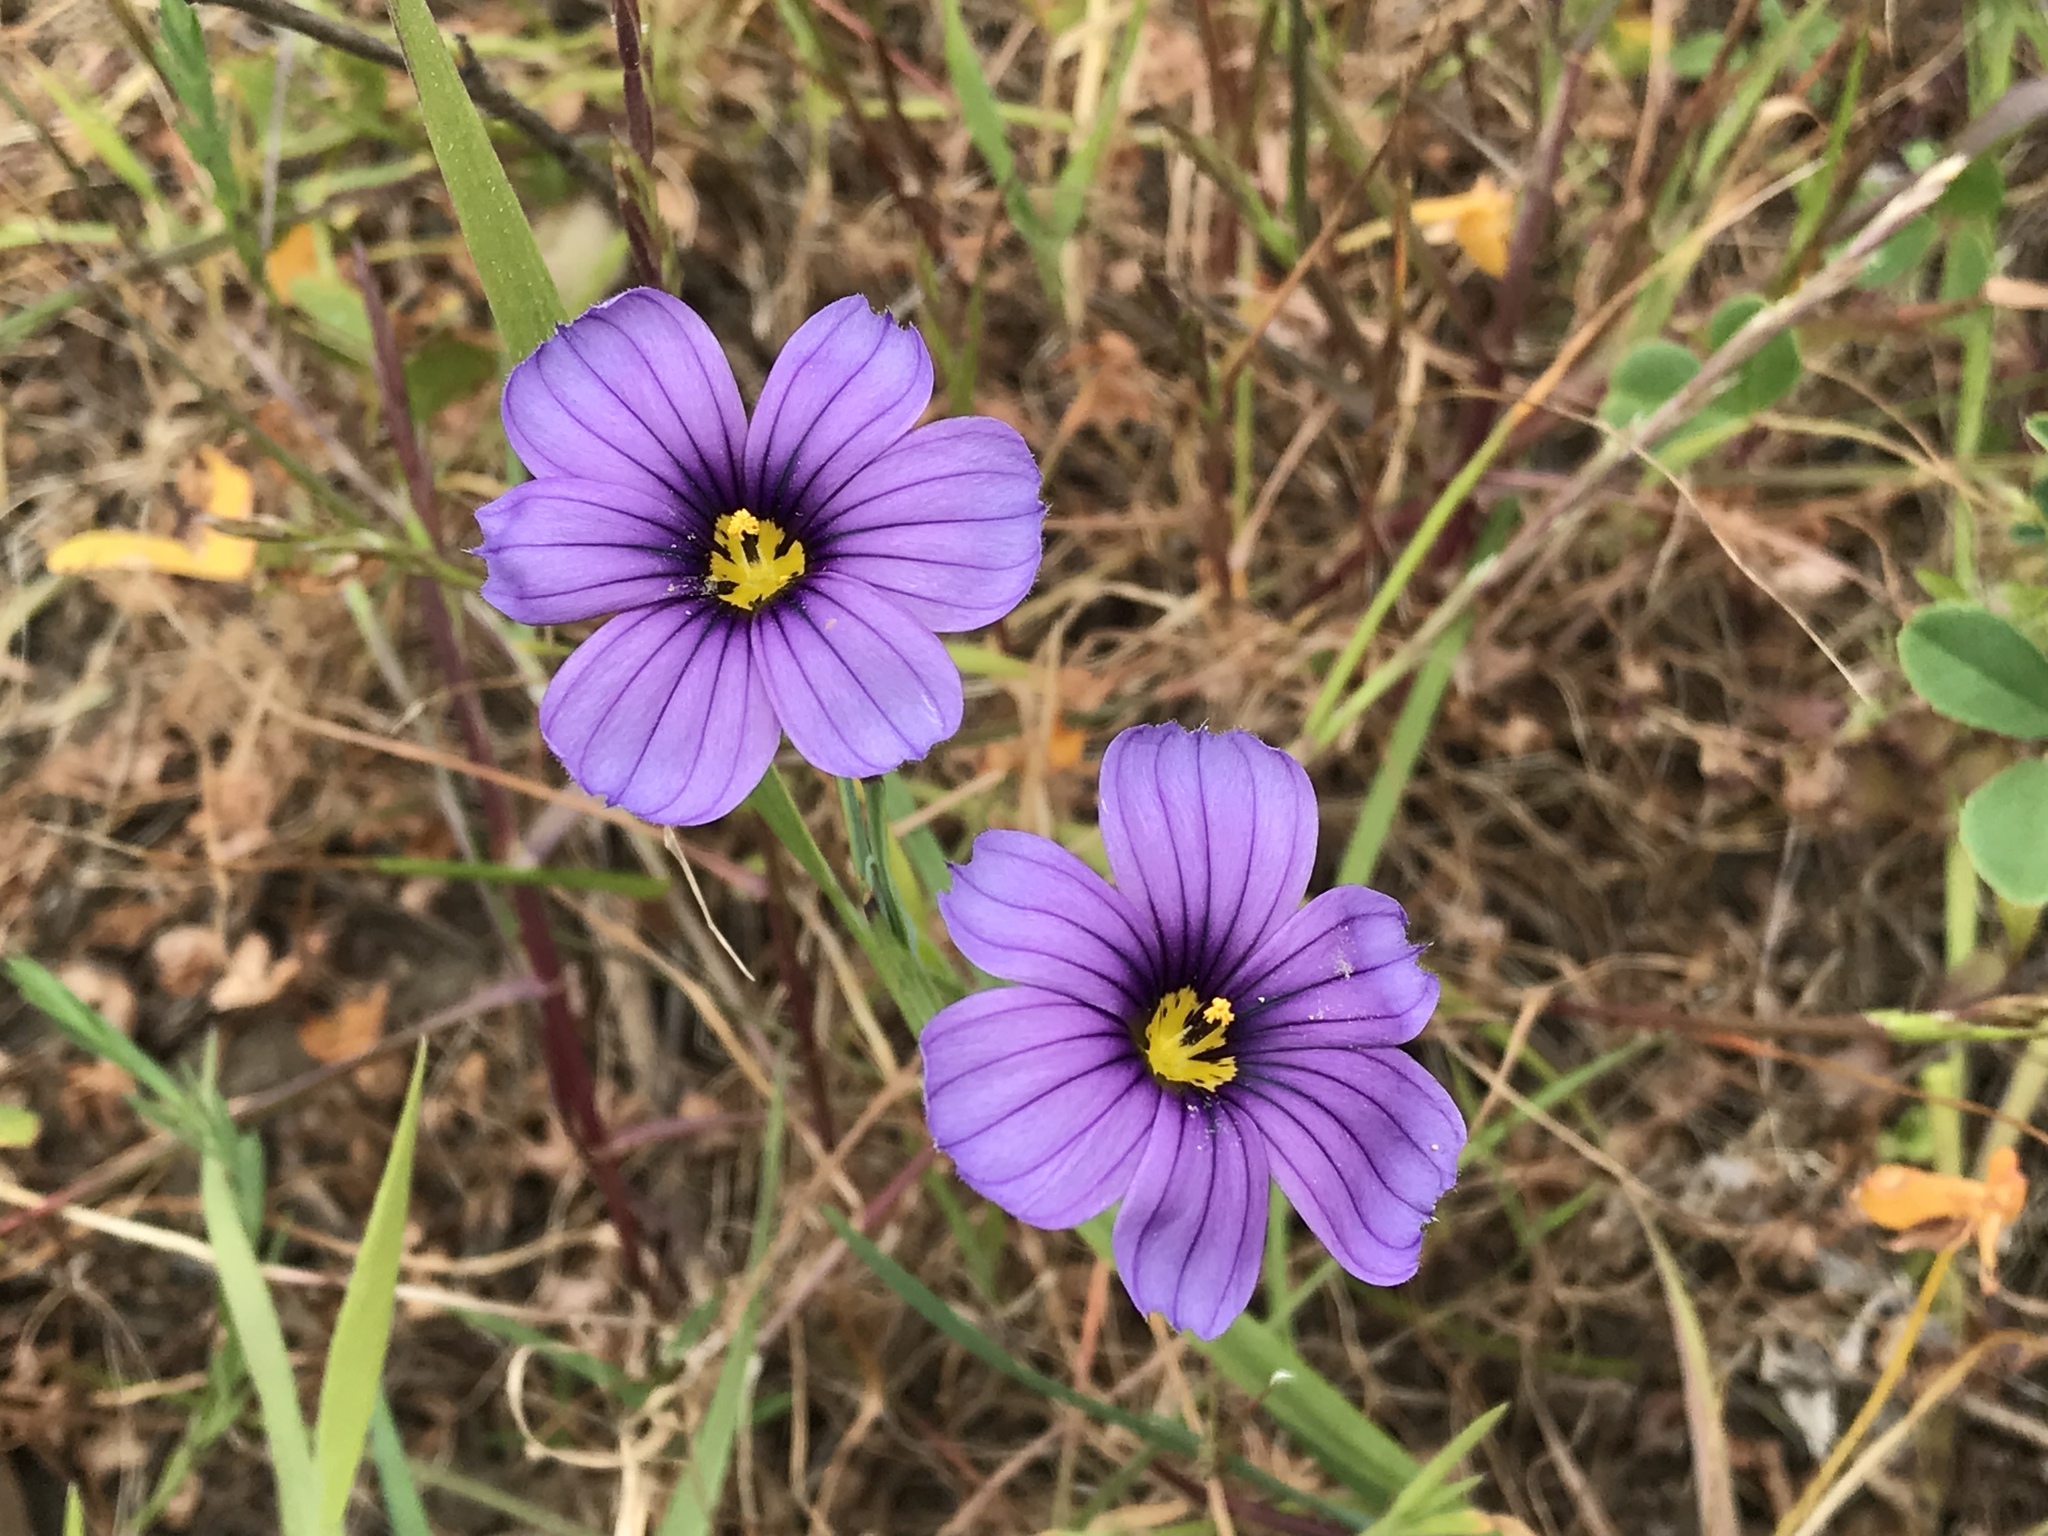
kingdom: Plantae
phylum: Tracheophyta
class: Liliopsida
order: Asparagales
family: Iridaceae
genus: Sisyrinchium
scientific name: Sisyrinchium bellum
